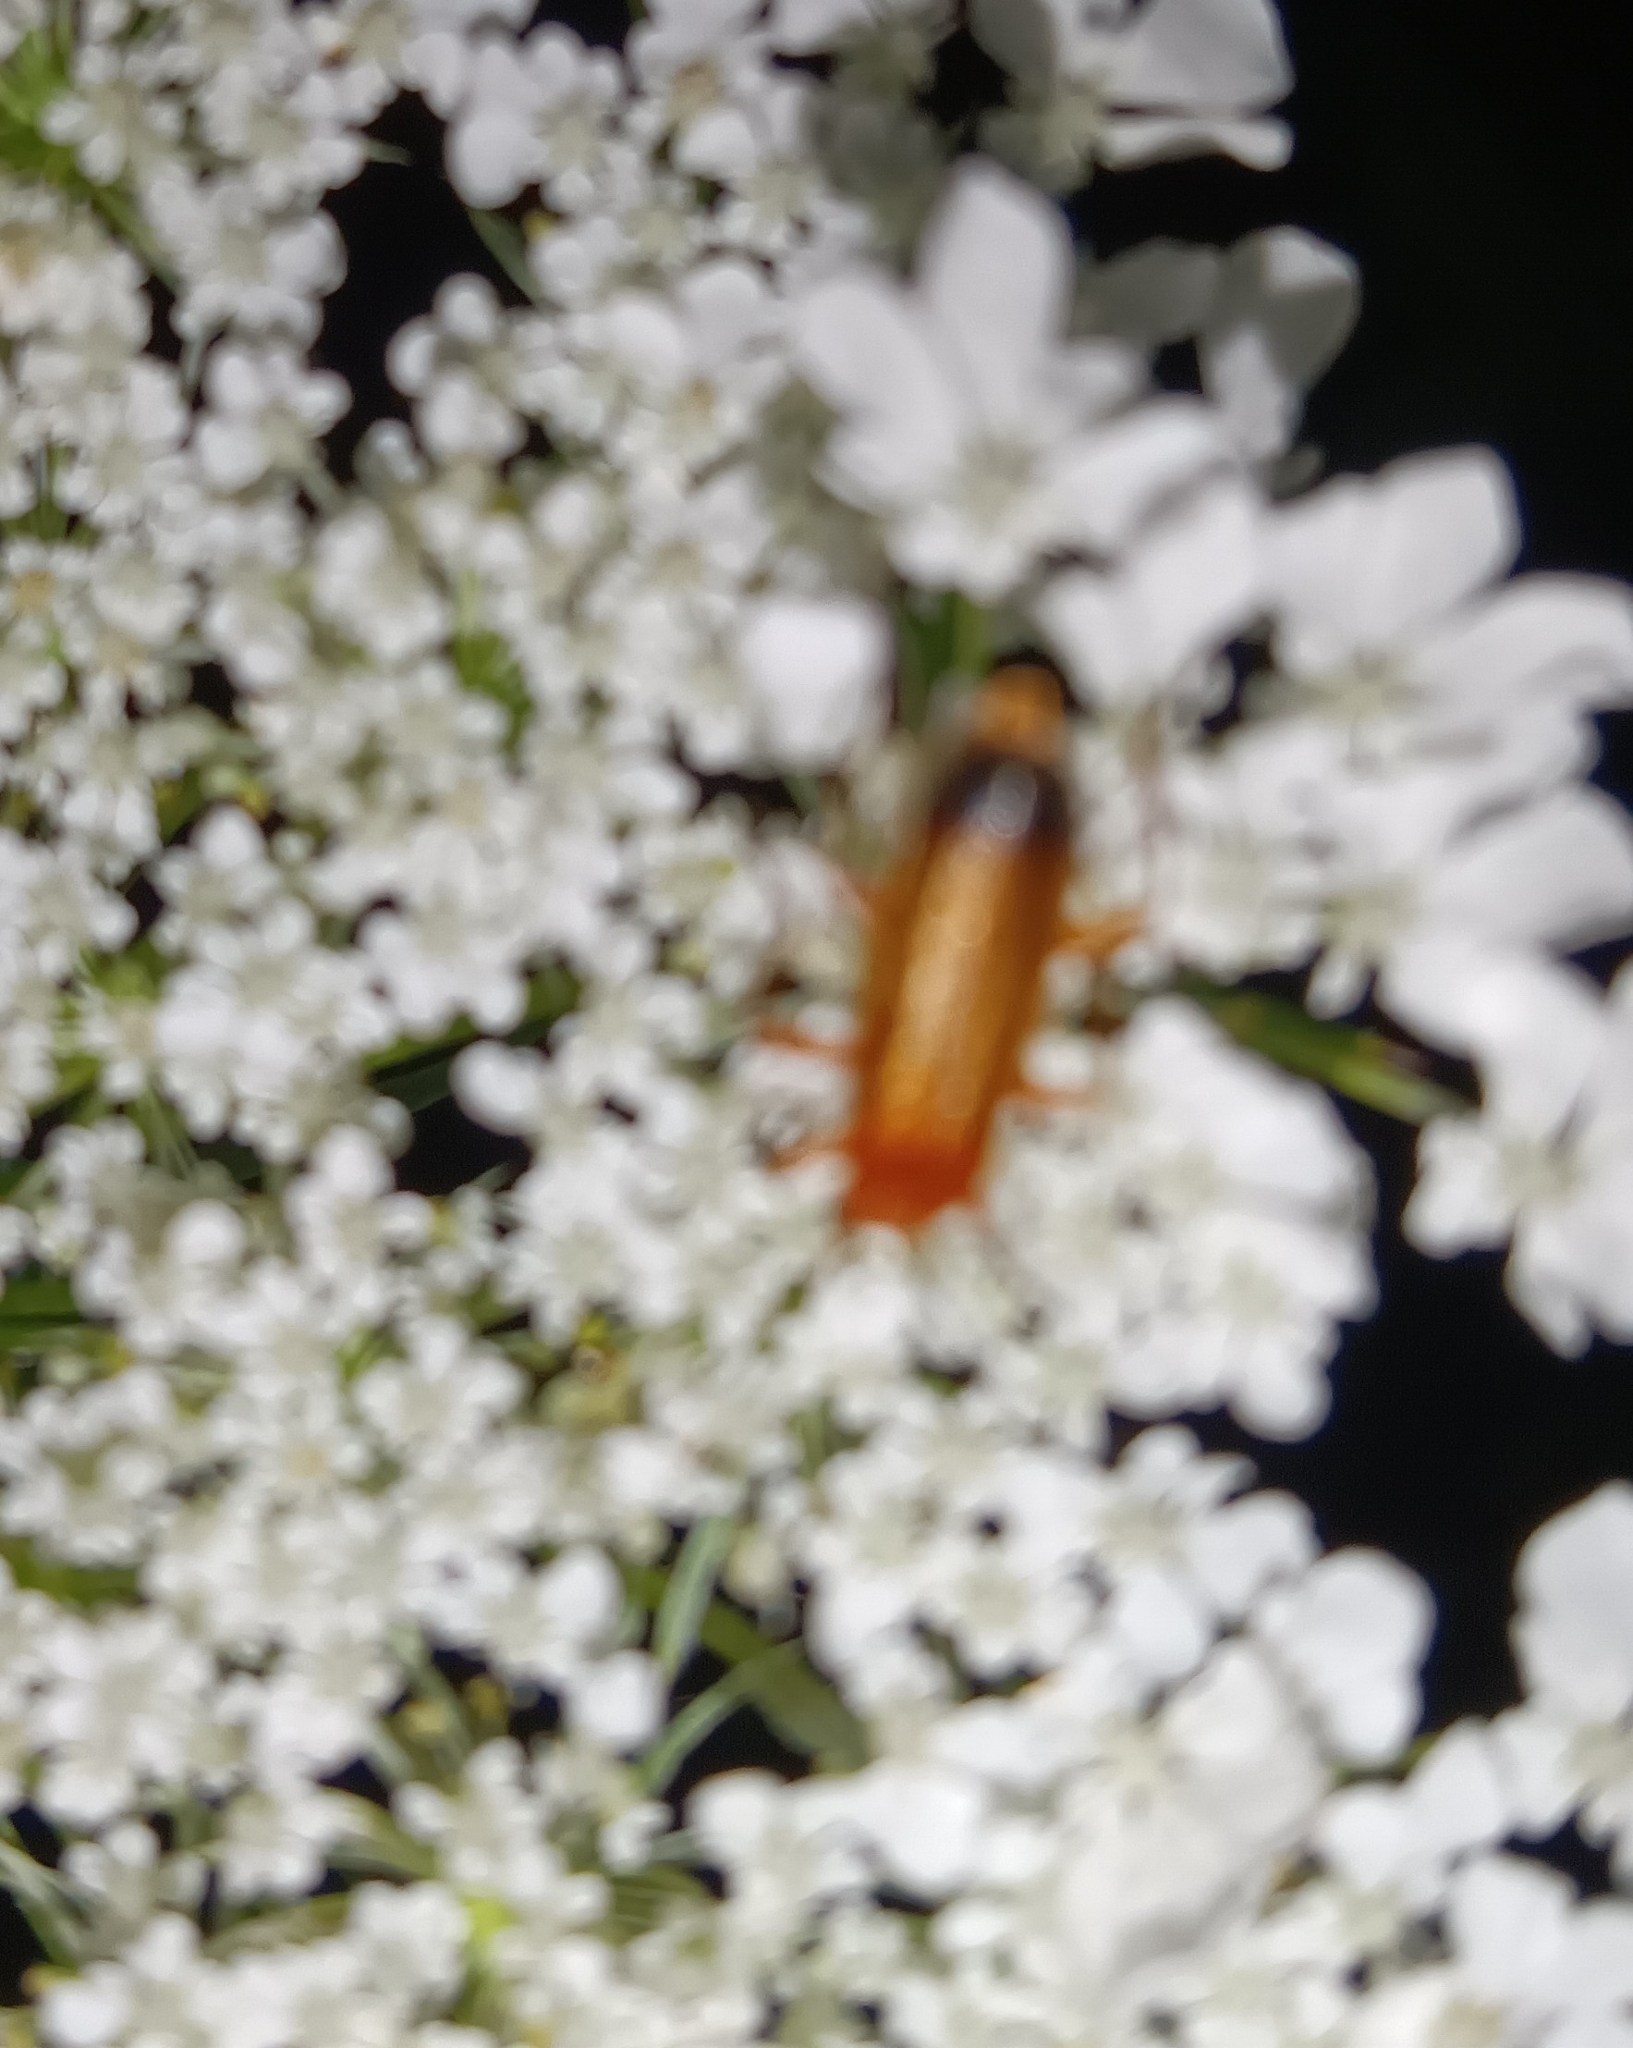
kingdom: Animalia
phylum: Arthropoda
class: Insecta
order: Coleoptera
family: Cantharidae
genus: Rhagonycha
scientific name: Rhagonycha fulva
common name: Common red soldier beetle
